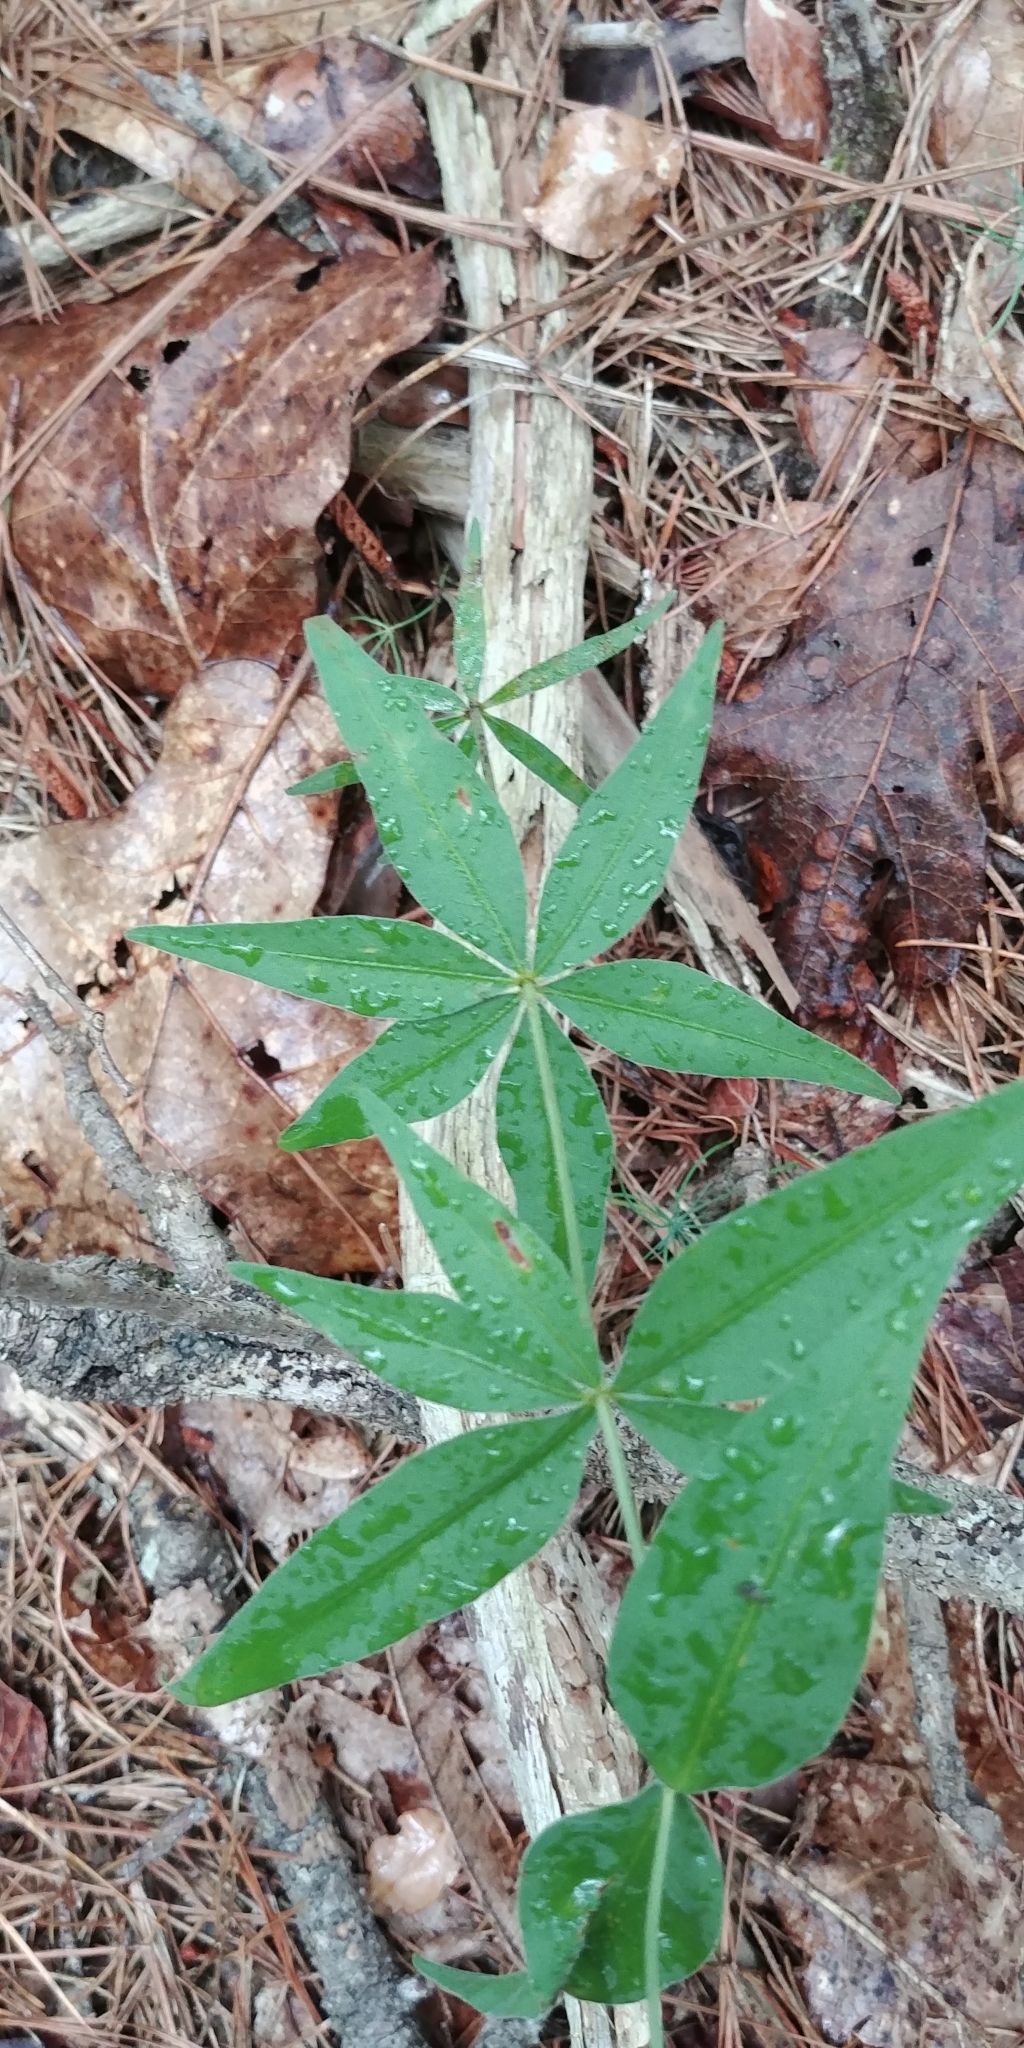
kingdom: Plantae
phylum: Tracheophyta
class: Magnoliopsida
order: Asterales
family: Asteraceae
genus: Coreopsis
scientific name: Coreopsis major
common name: Forest tickseed
